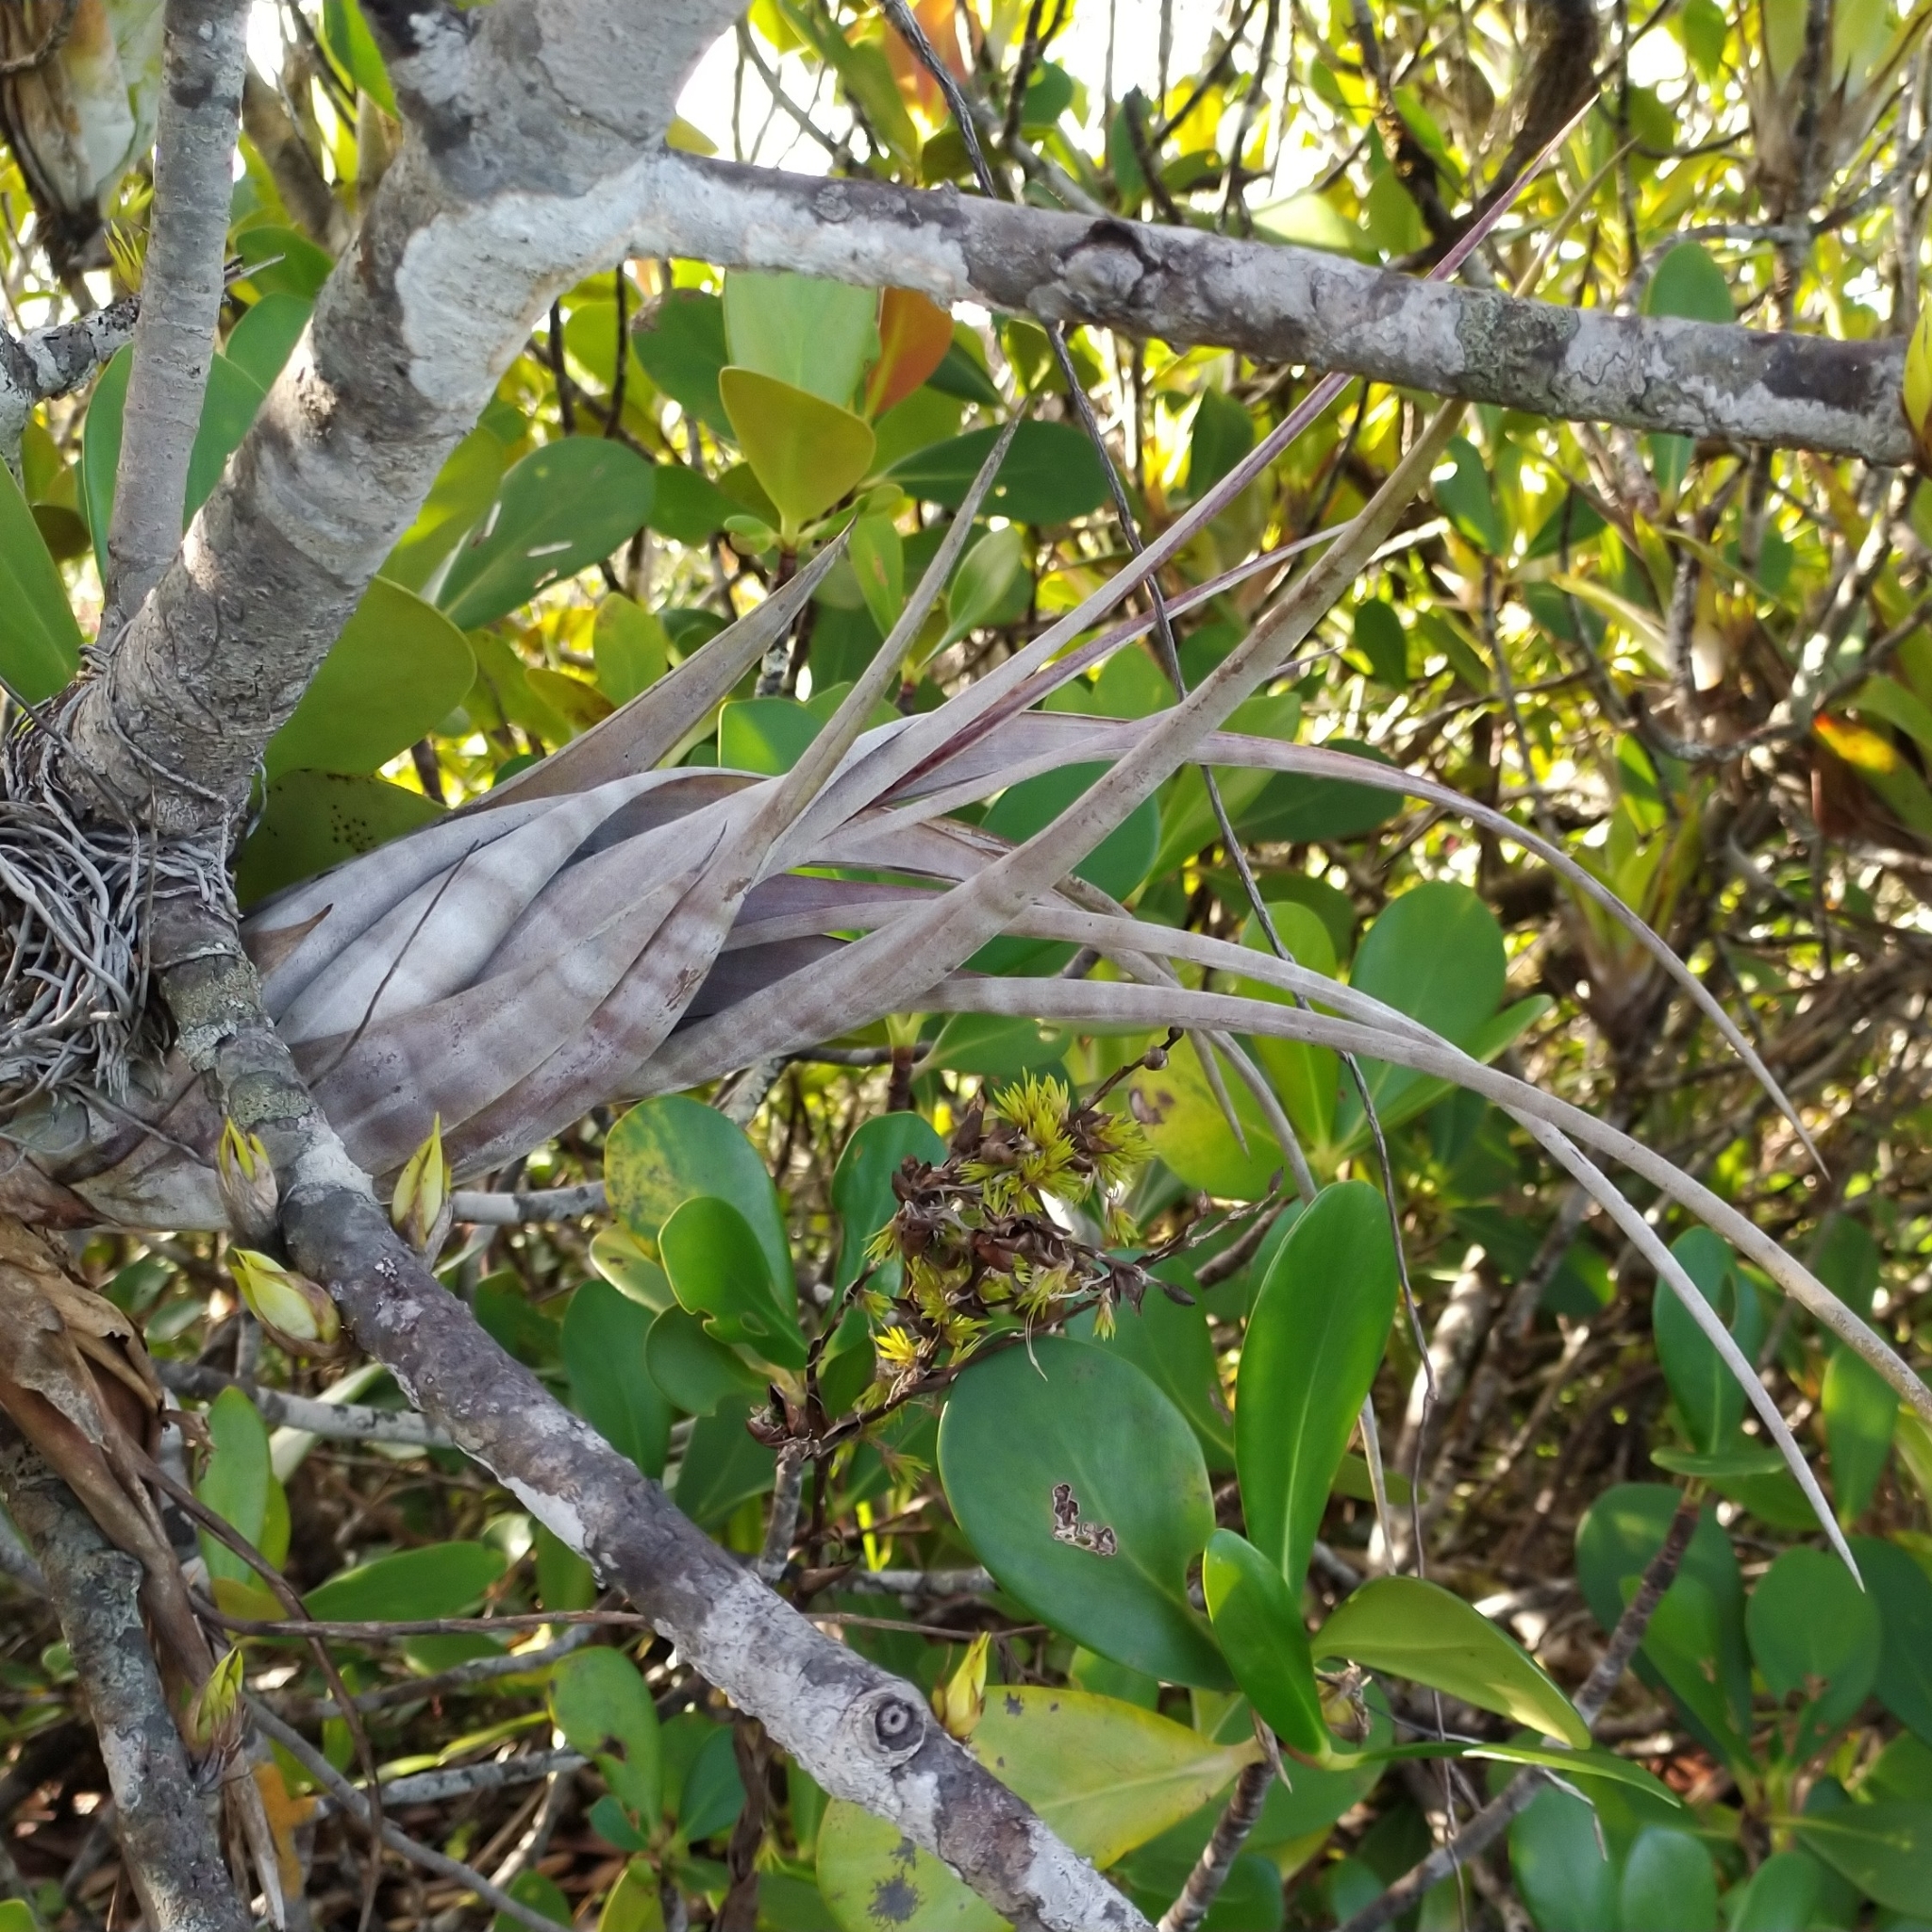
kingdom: Plantae
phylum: Tracheophyta
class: Liliopsida
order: Poales
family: Bromeliaceae
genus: Tillandsia
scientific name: Tillandsia flexuosa
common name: Banded airplant
